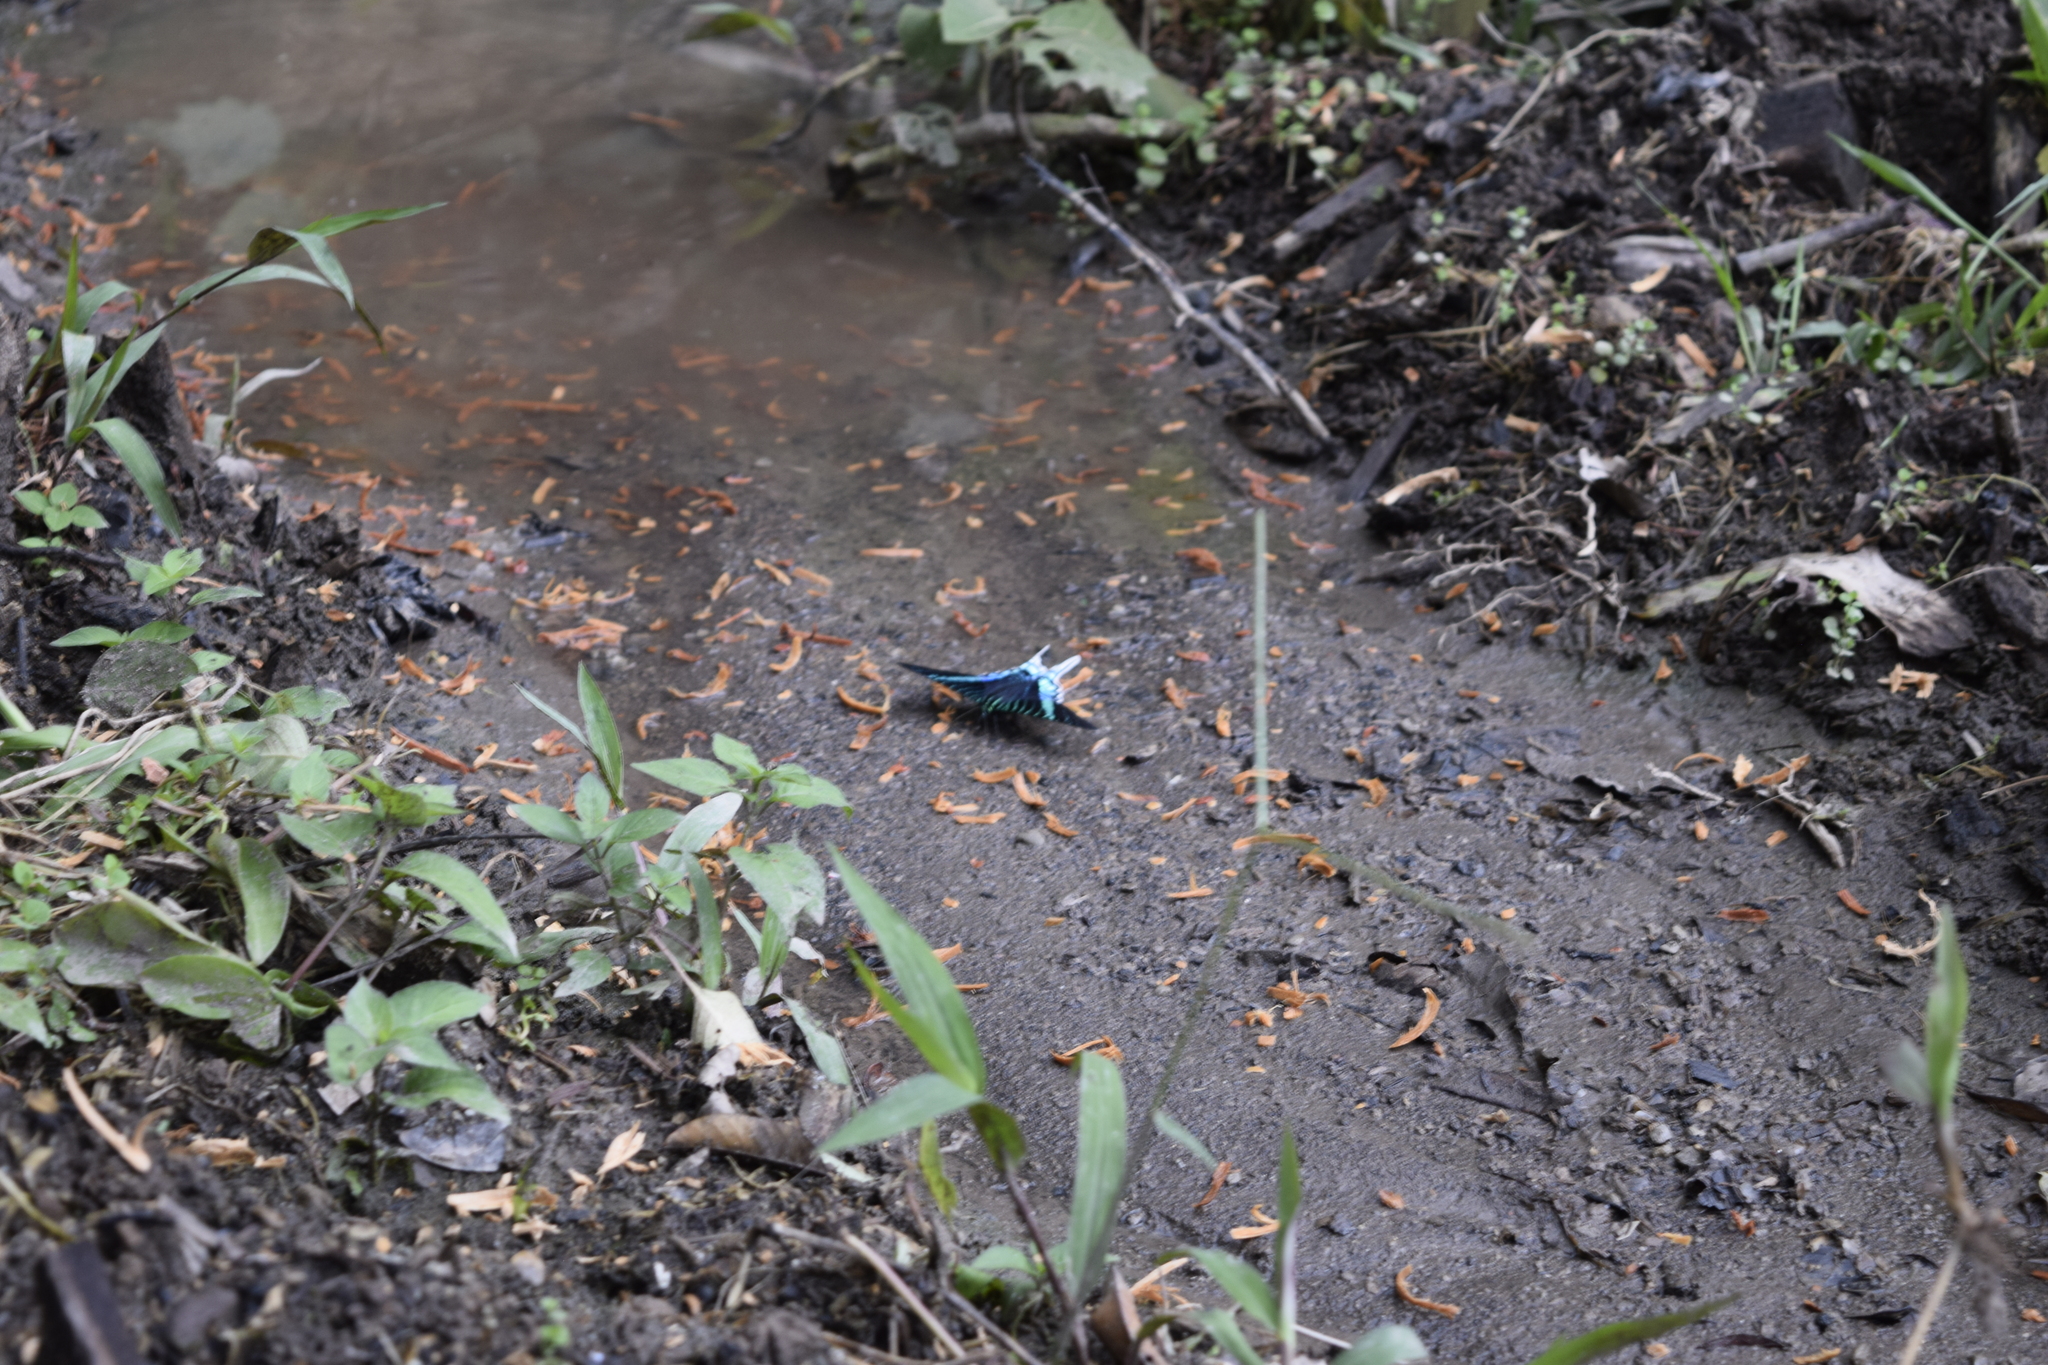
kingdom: Animalia
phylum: Arthropoda
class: Insecta
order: Lepidoptera
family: Uraniidae
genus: Urania
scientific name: Urania leilus
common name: Peacock moth
